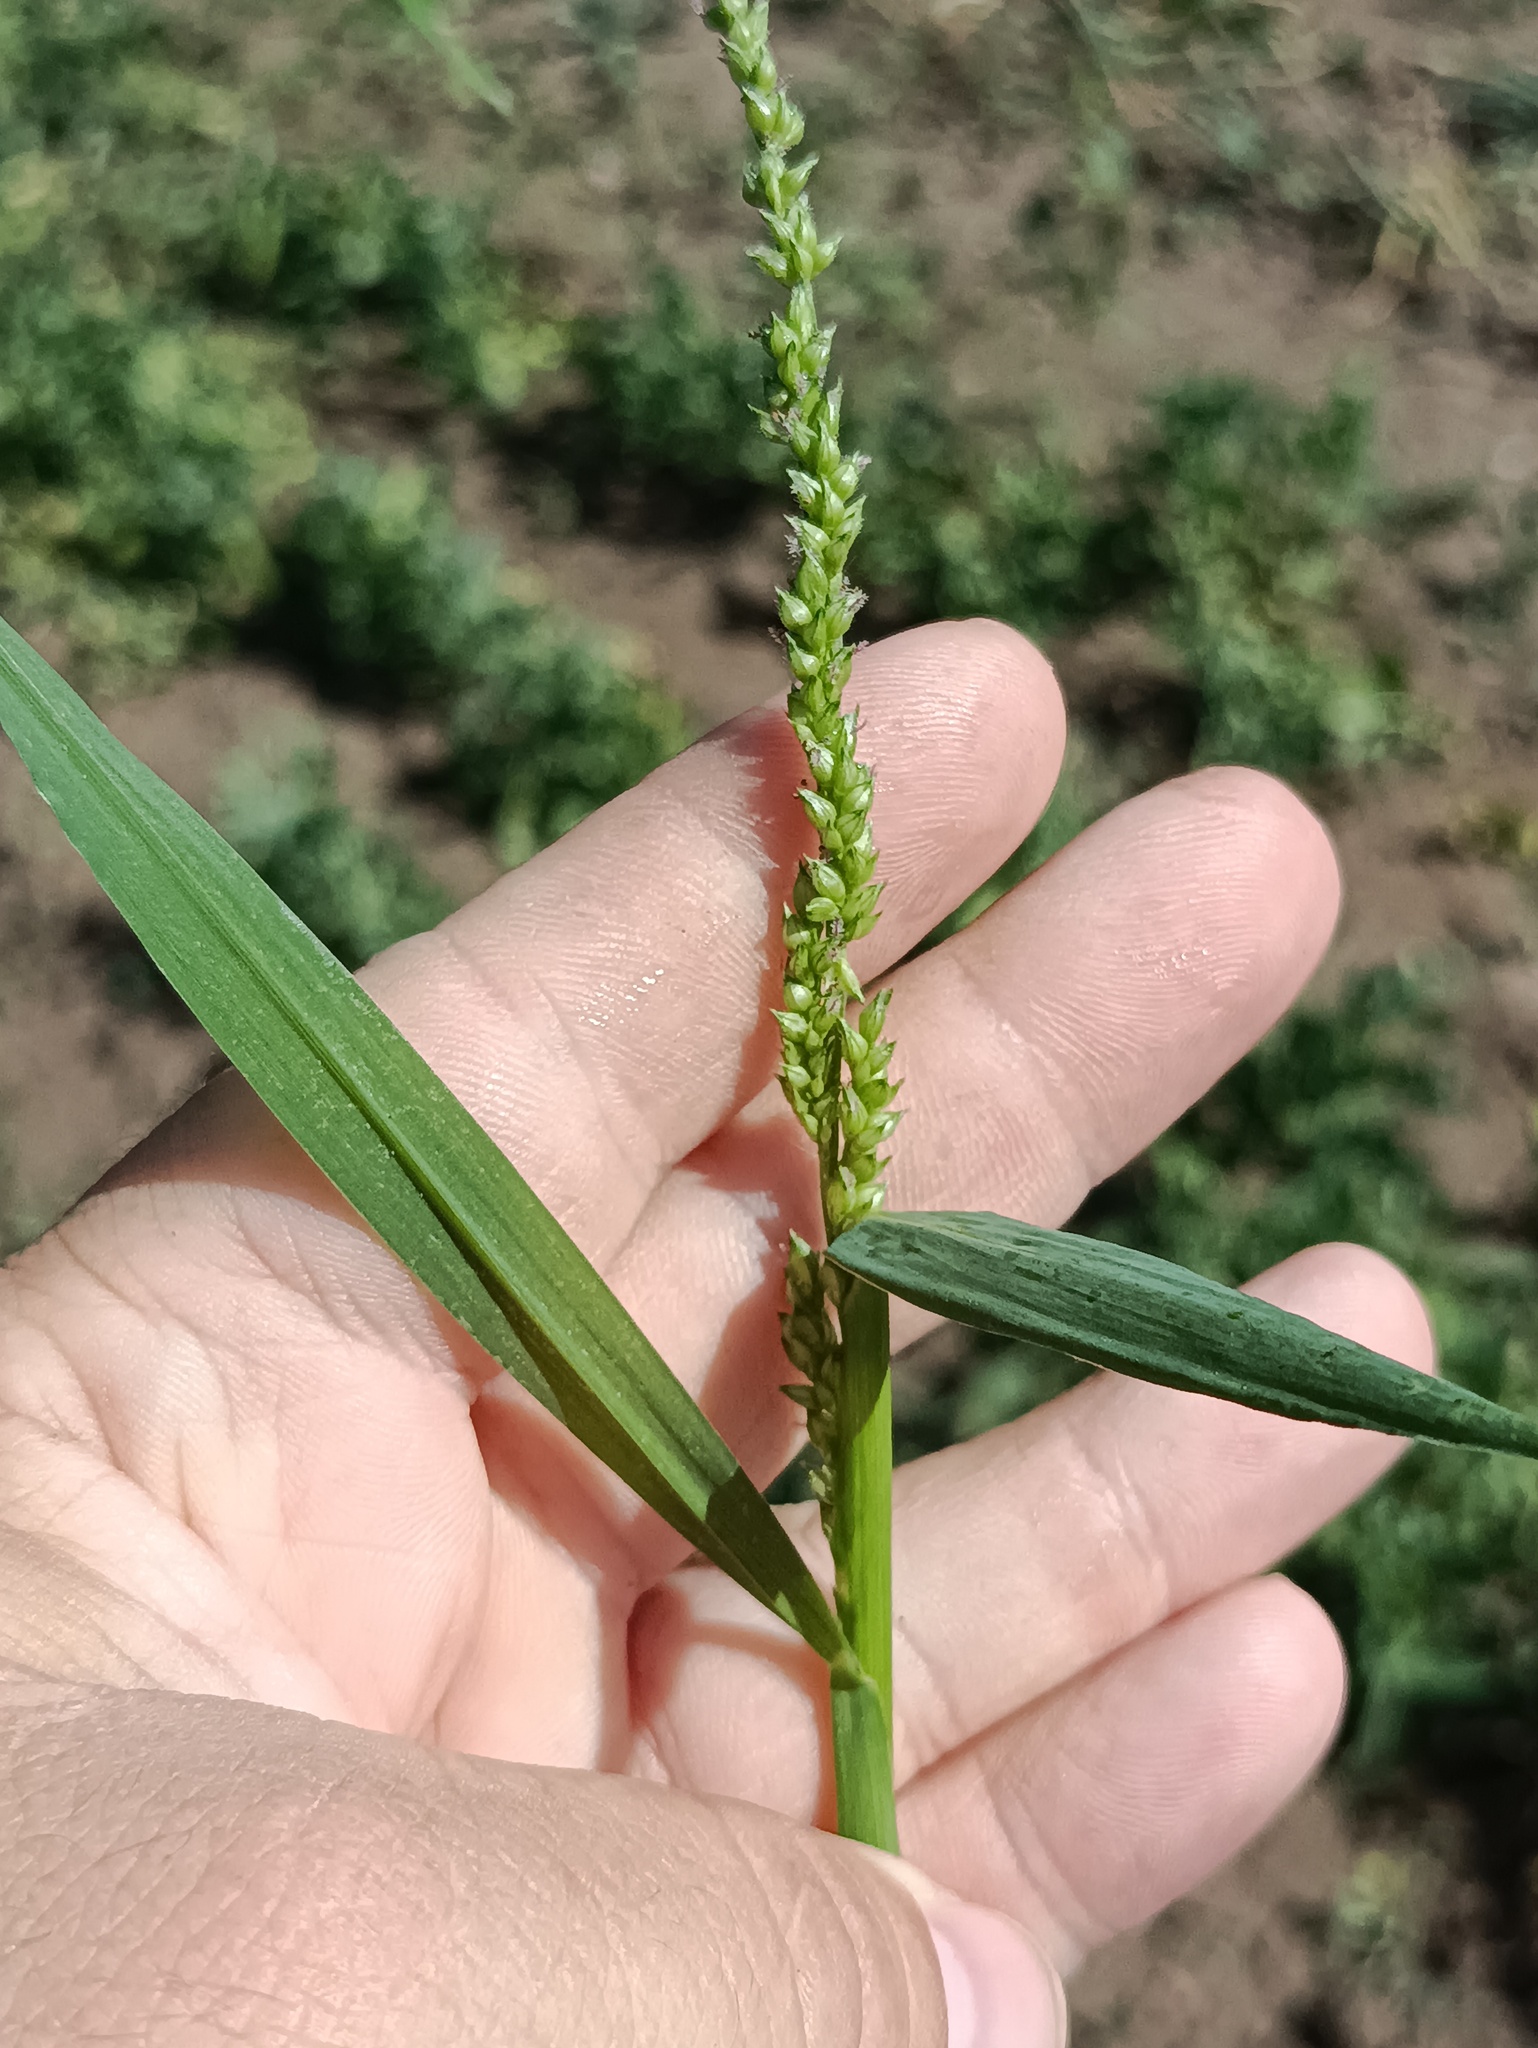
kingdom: Plantae
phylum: Tracheophyta
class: Liliopsida
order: Poales
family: Poaceae
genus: Echinochloa
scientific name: Echinochloa crus-galli
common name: Cockspur
